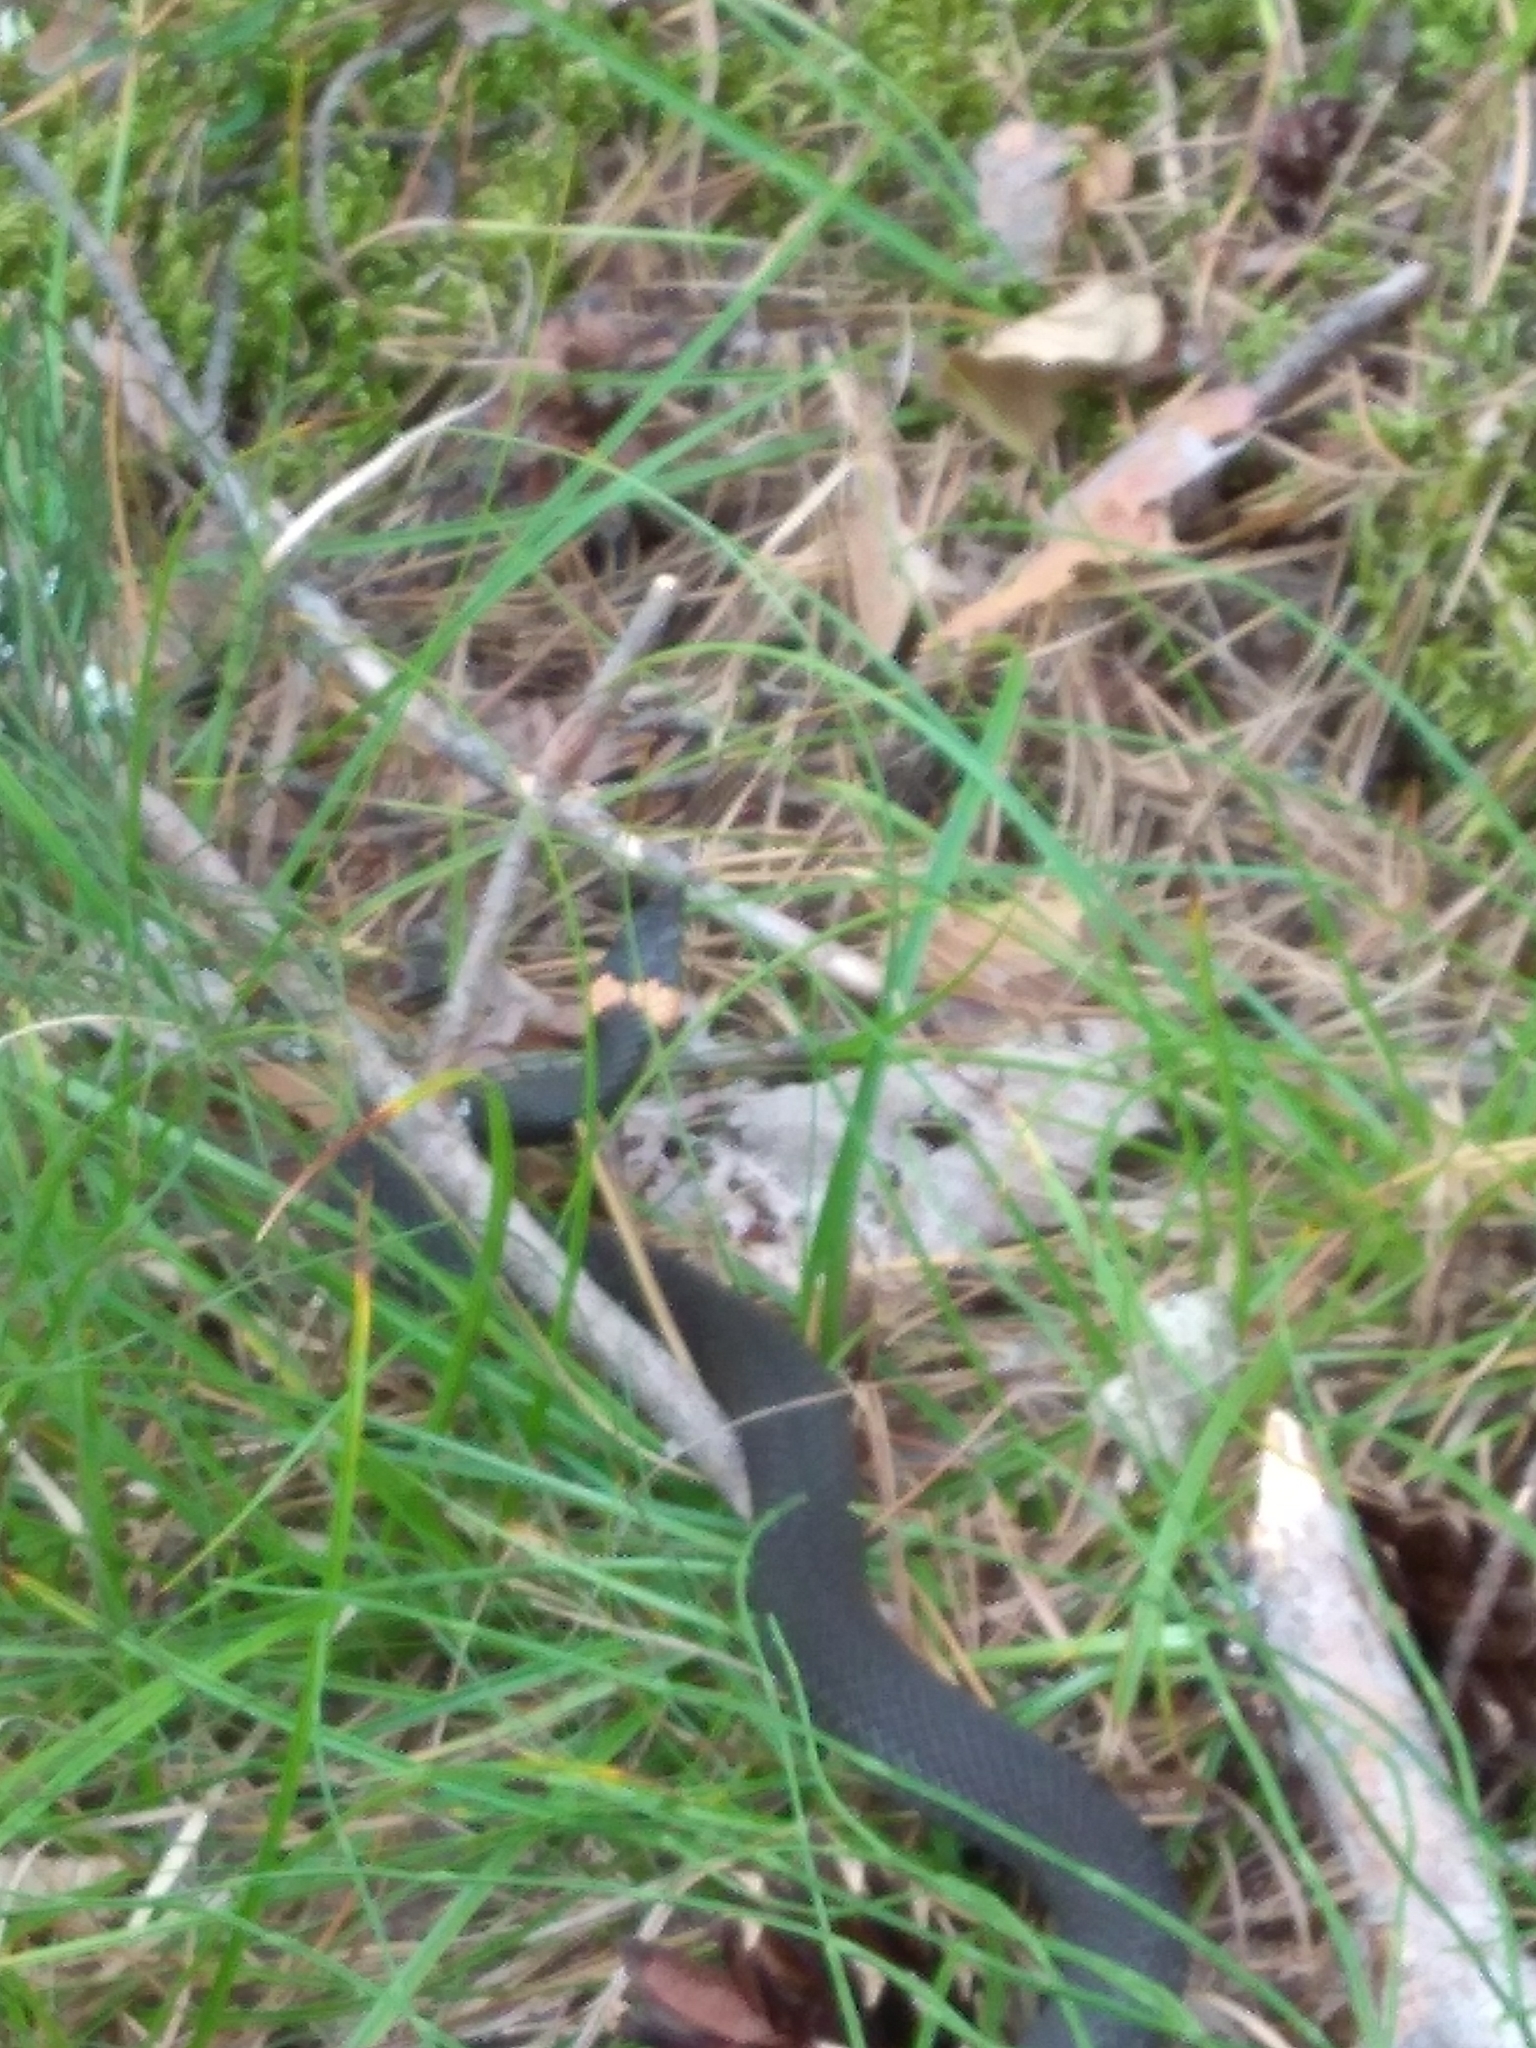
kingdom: Animalia
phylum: Chordata
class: Squamata
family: Colubridae
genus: Natrix
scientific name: Natrix natrix
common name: Grass snake
